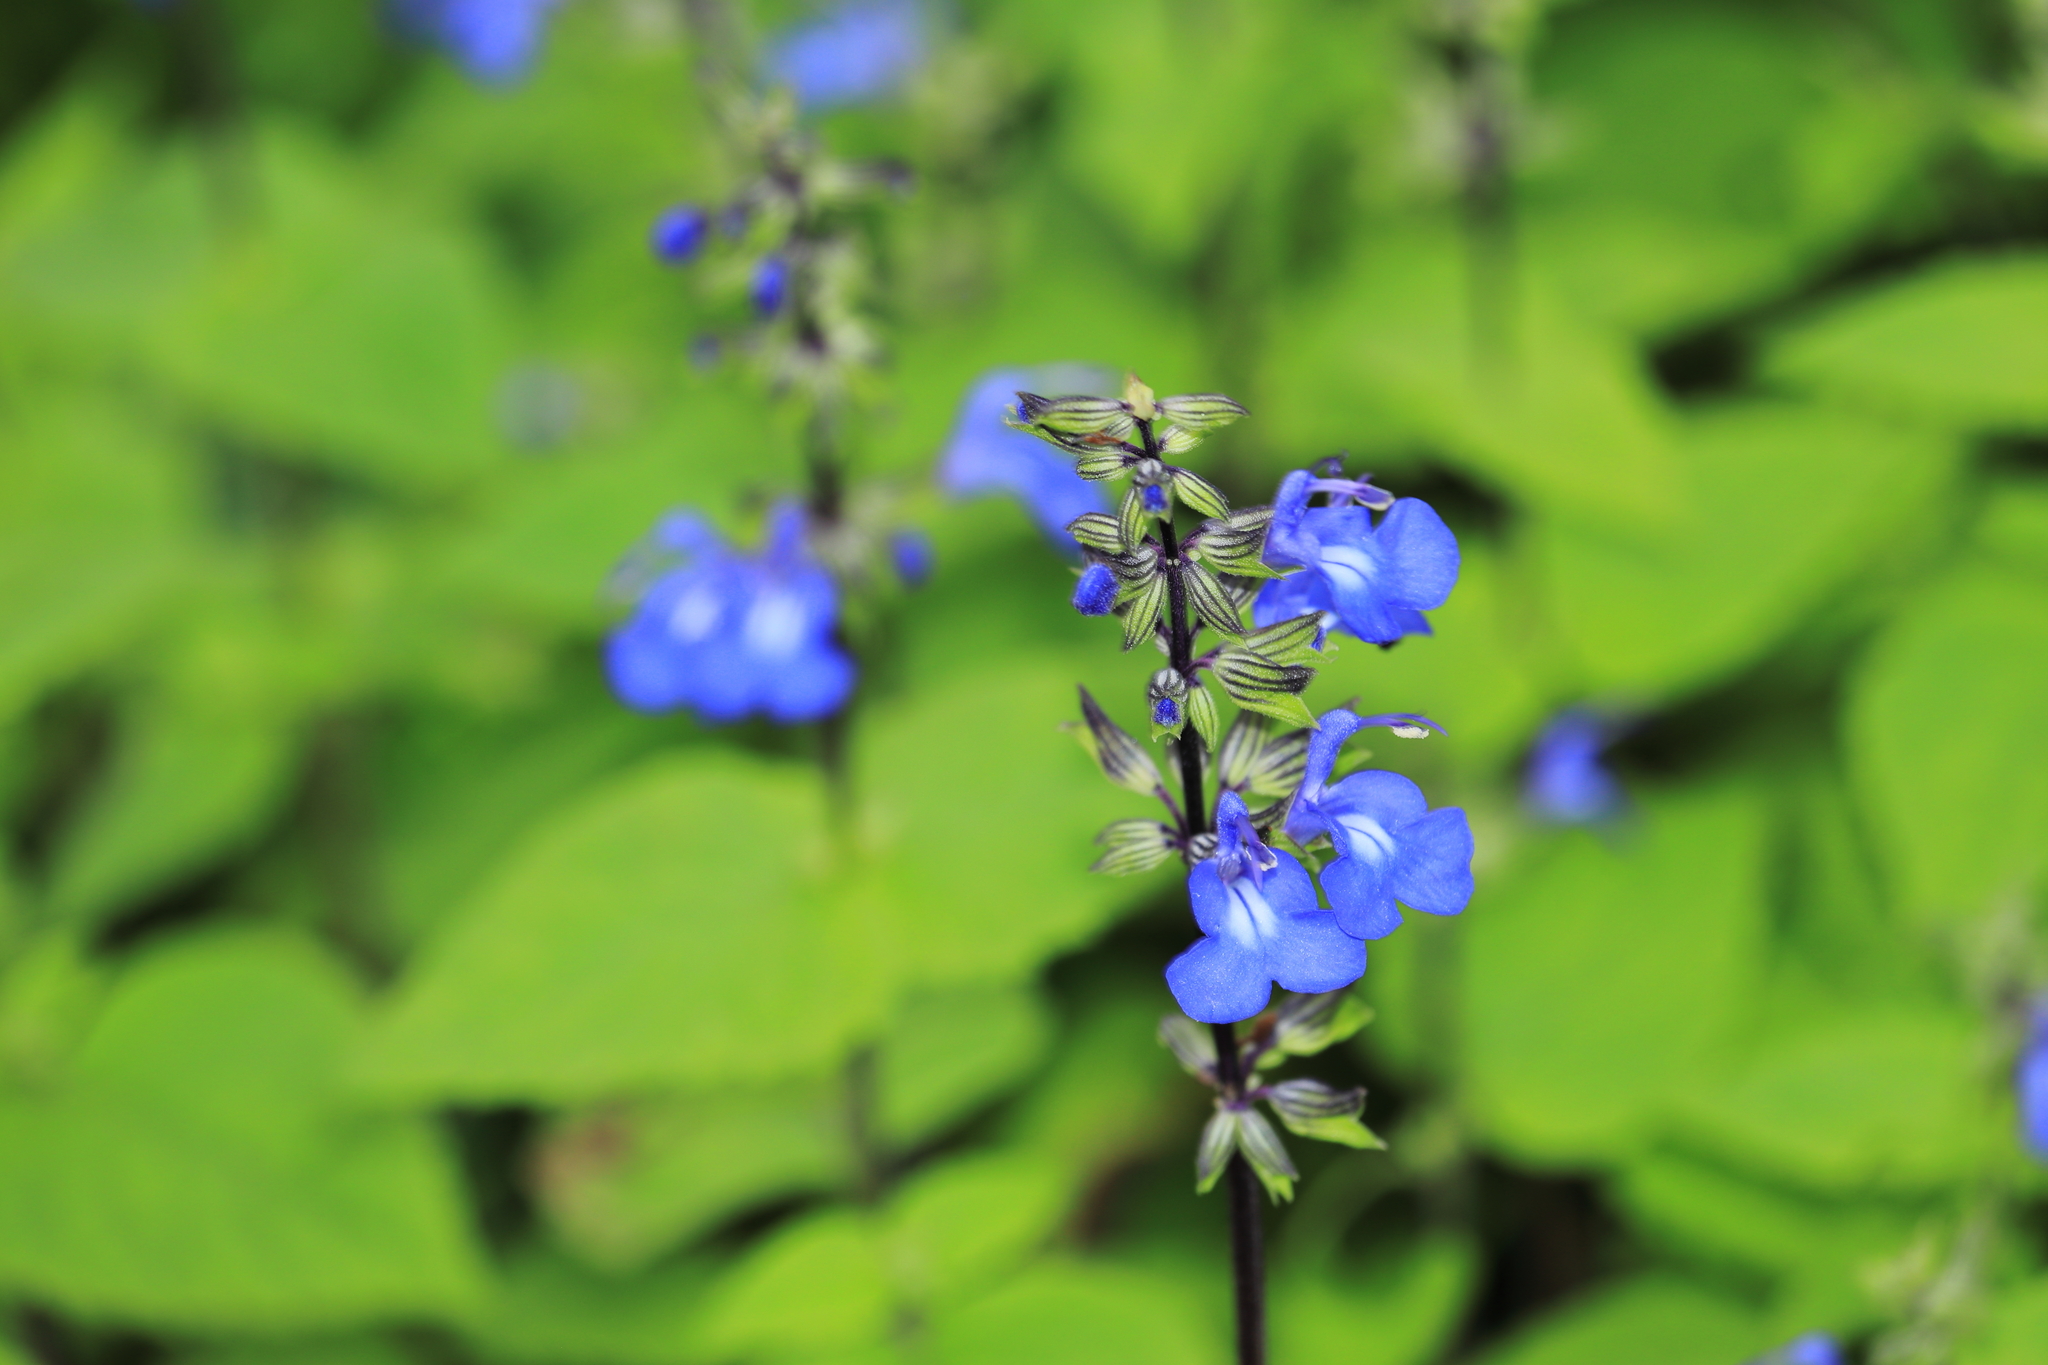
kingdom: Plantae
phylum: Tracheophyta
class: Magnoliopsida
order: Lamiales
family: Lamiaceae
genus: Salvia
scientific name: Salvia paposana
